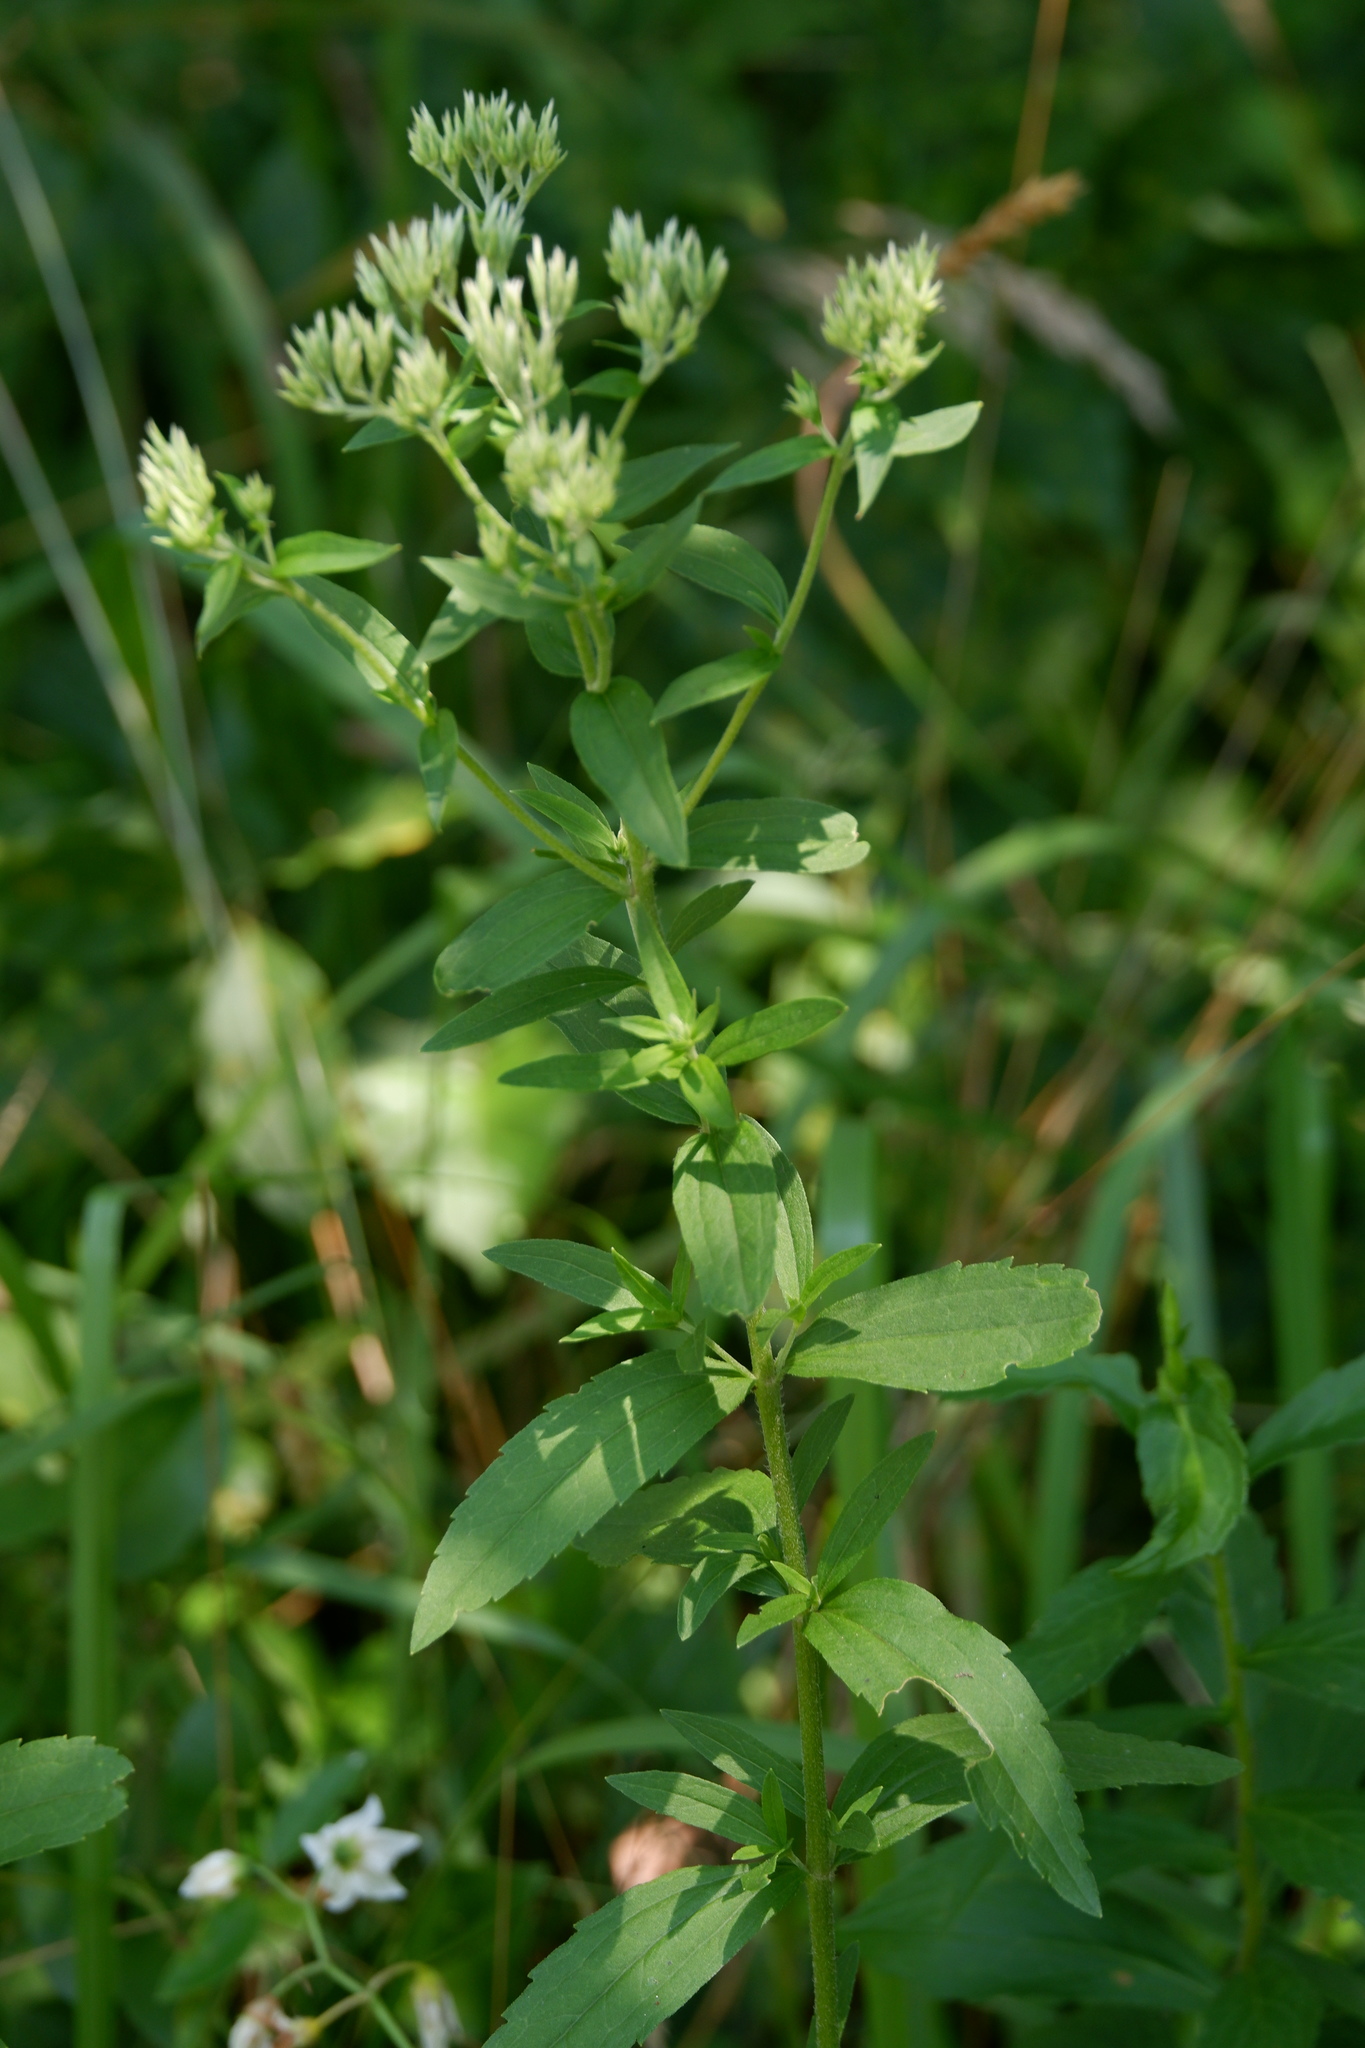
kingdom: Plantae
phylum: Tracheophyta
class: Magnoliopsida
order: Asterales
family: Asteraceae
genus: Eupatorium
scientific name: Eupatorium album
